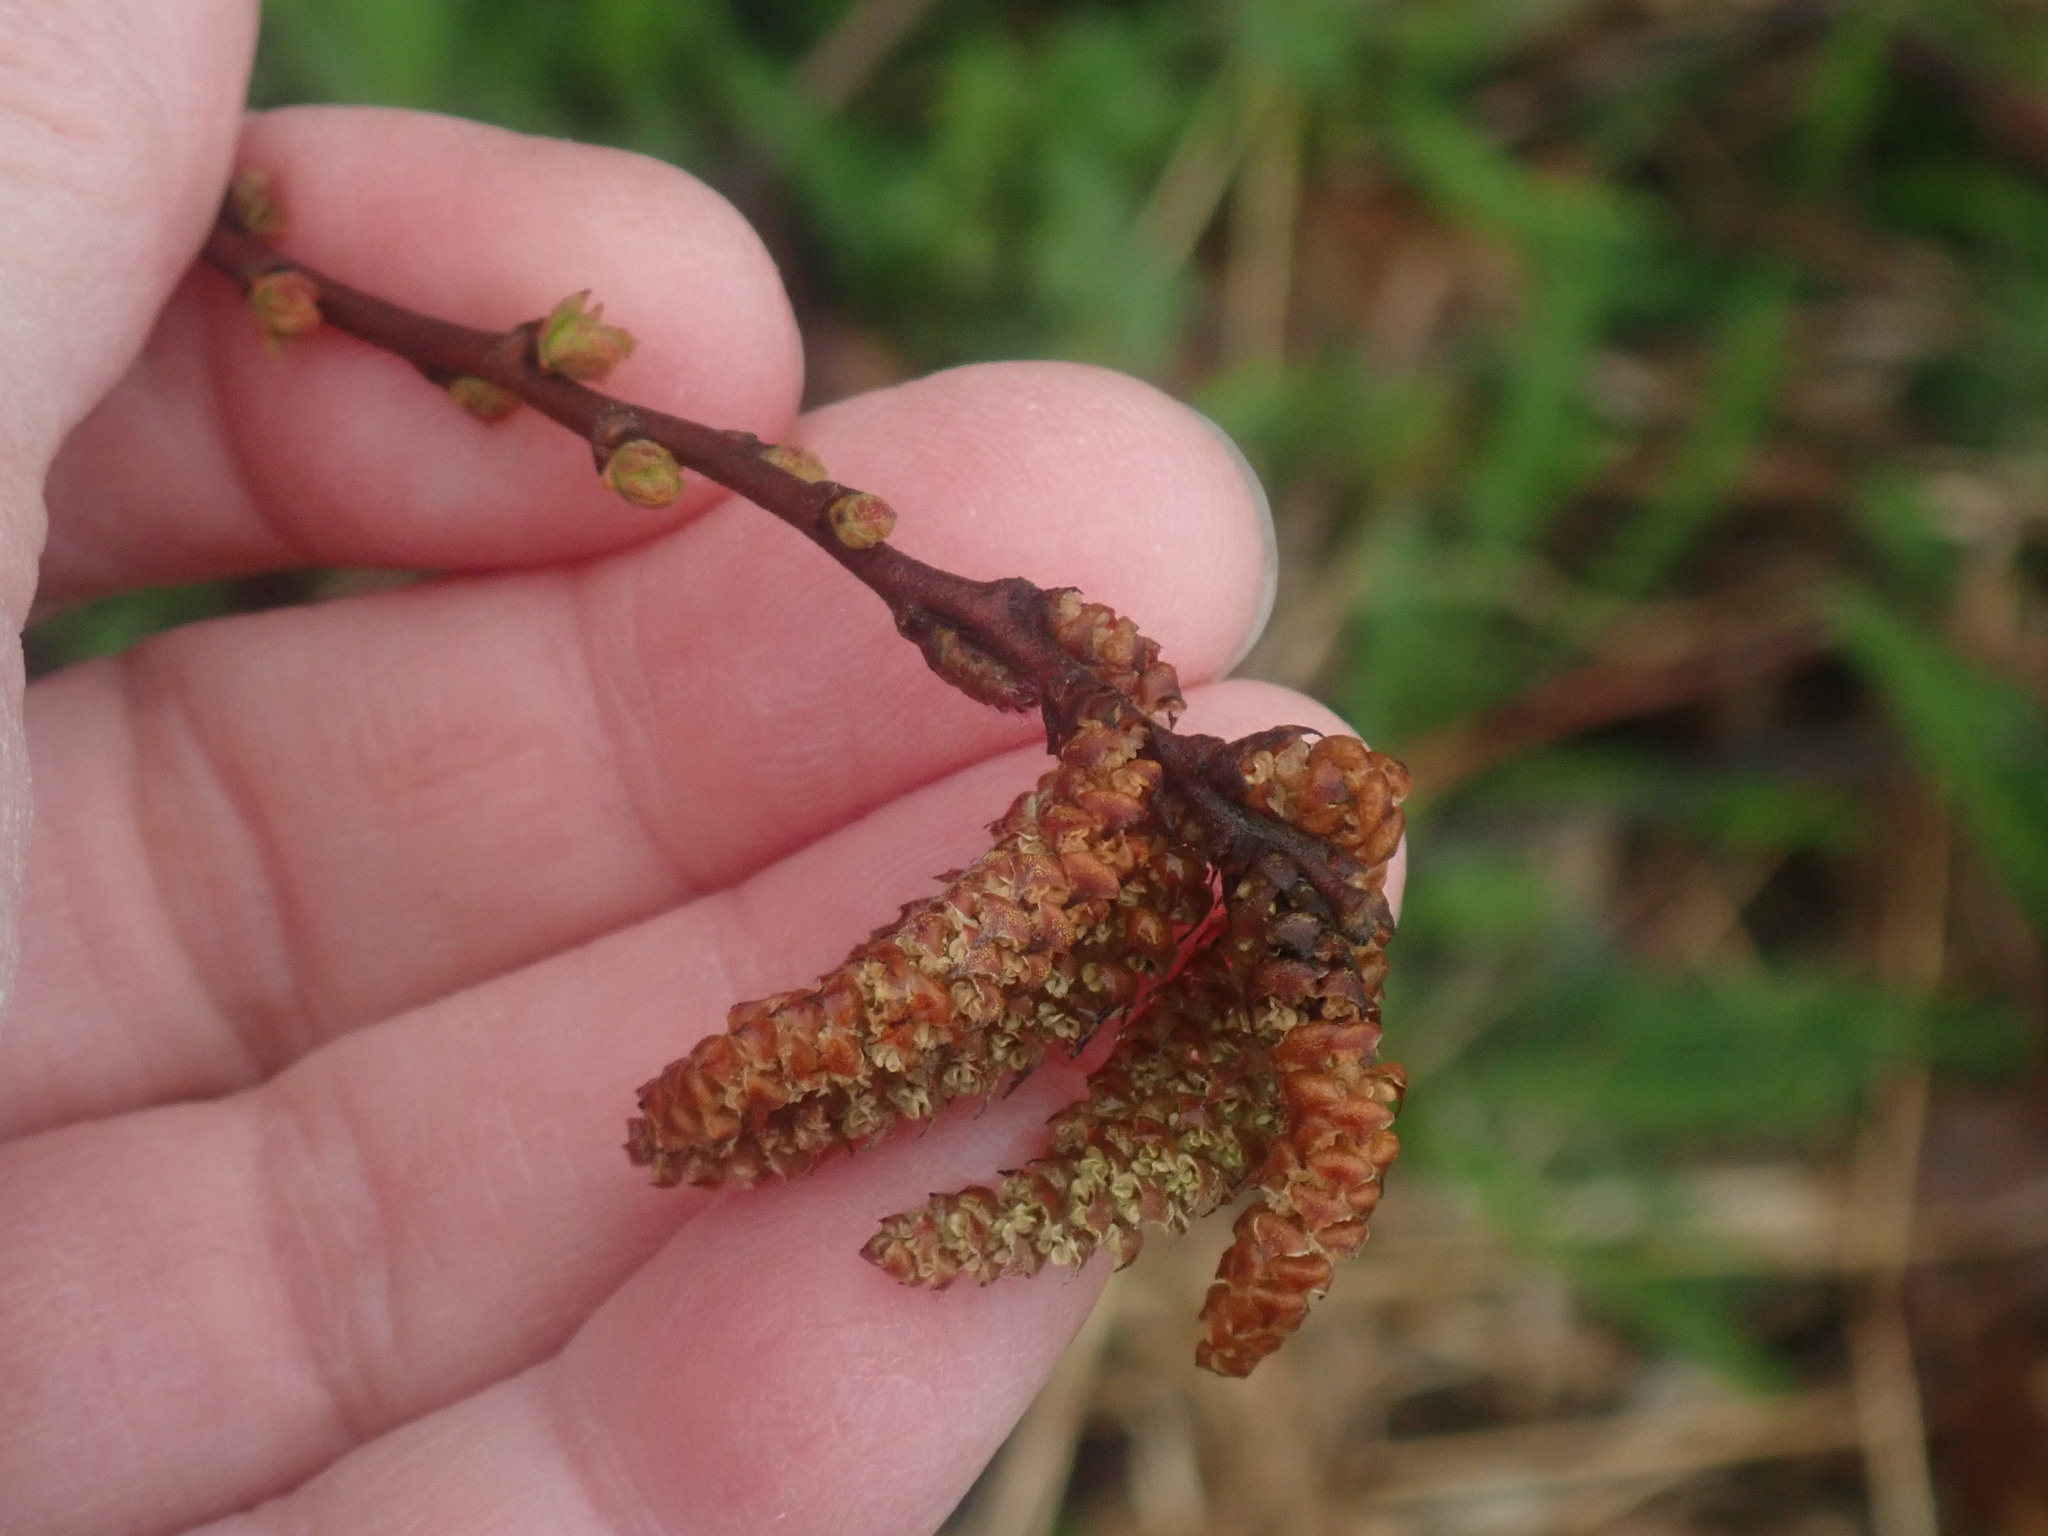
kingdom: Plantae
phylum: Tracheophyta
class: Magnoliopsida
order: Fagales
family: Myricaceae
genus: Comptonia
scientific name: Comptonia peregrina
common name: Sweet-fern
